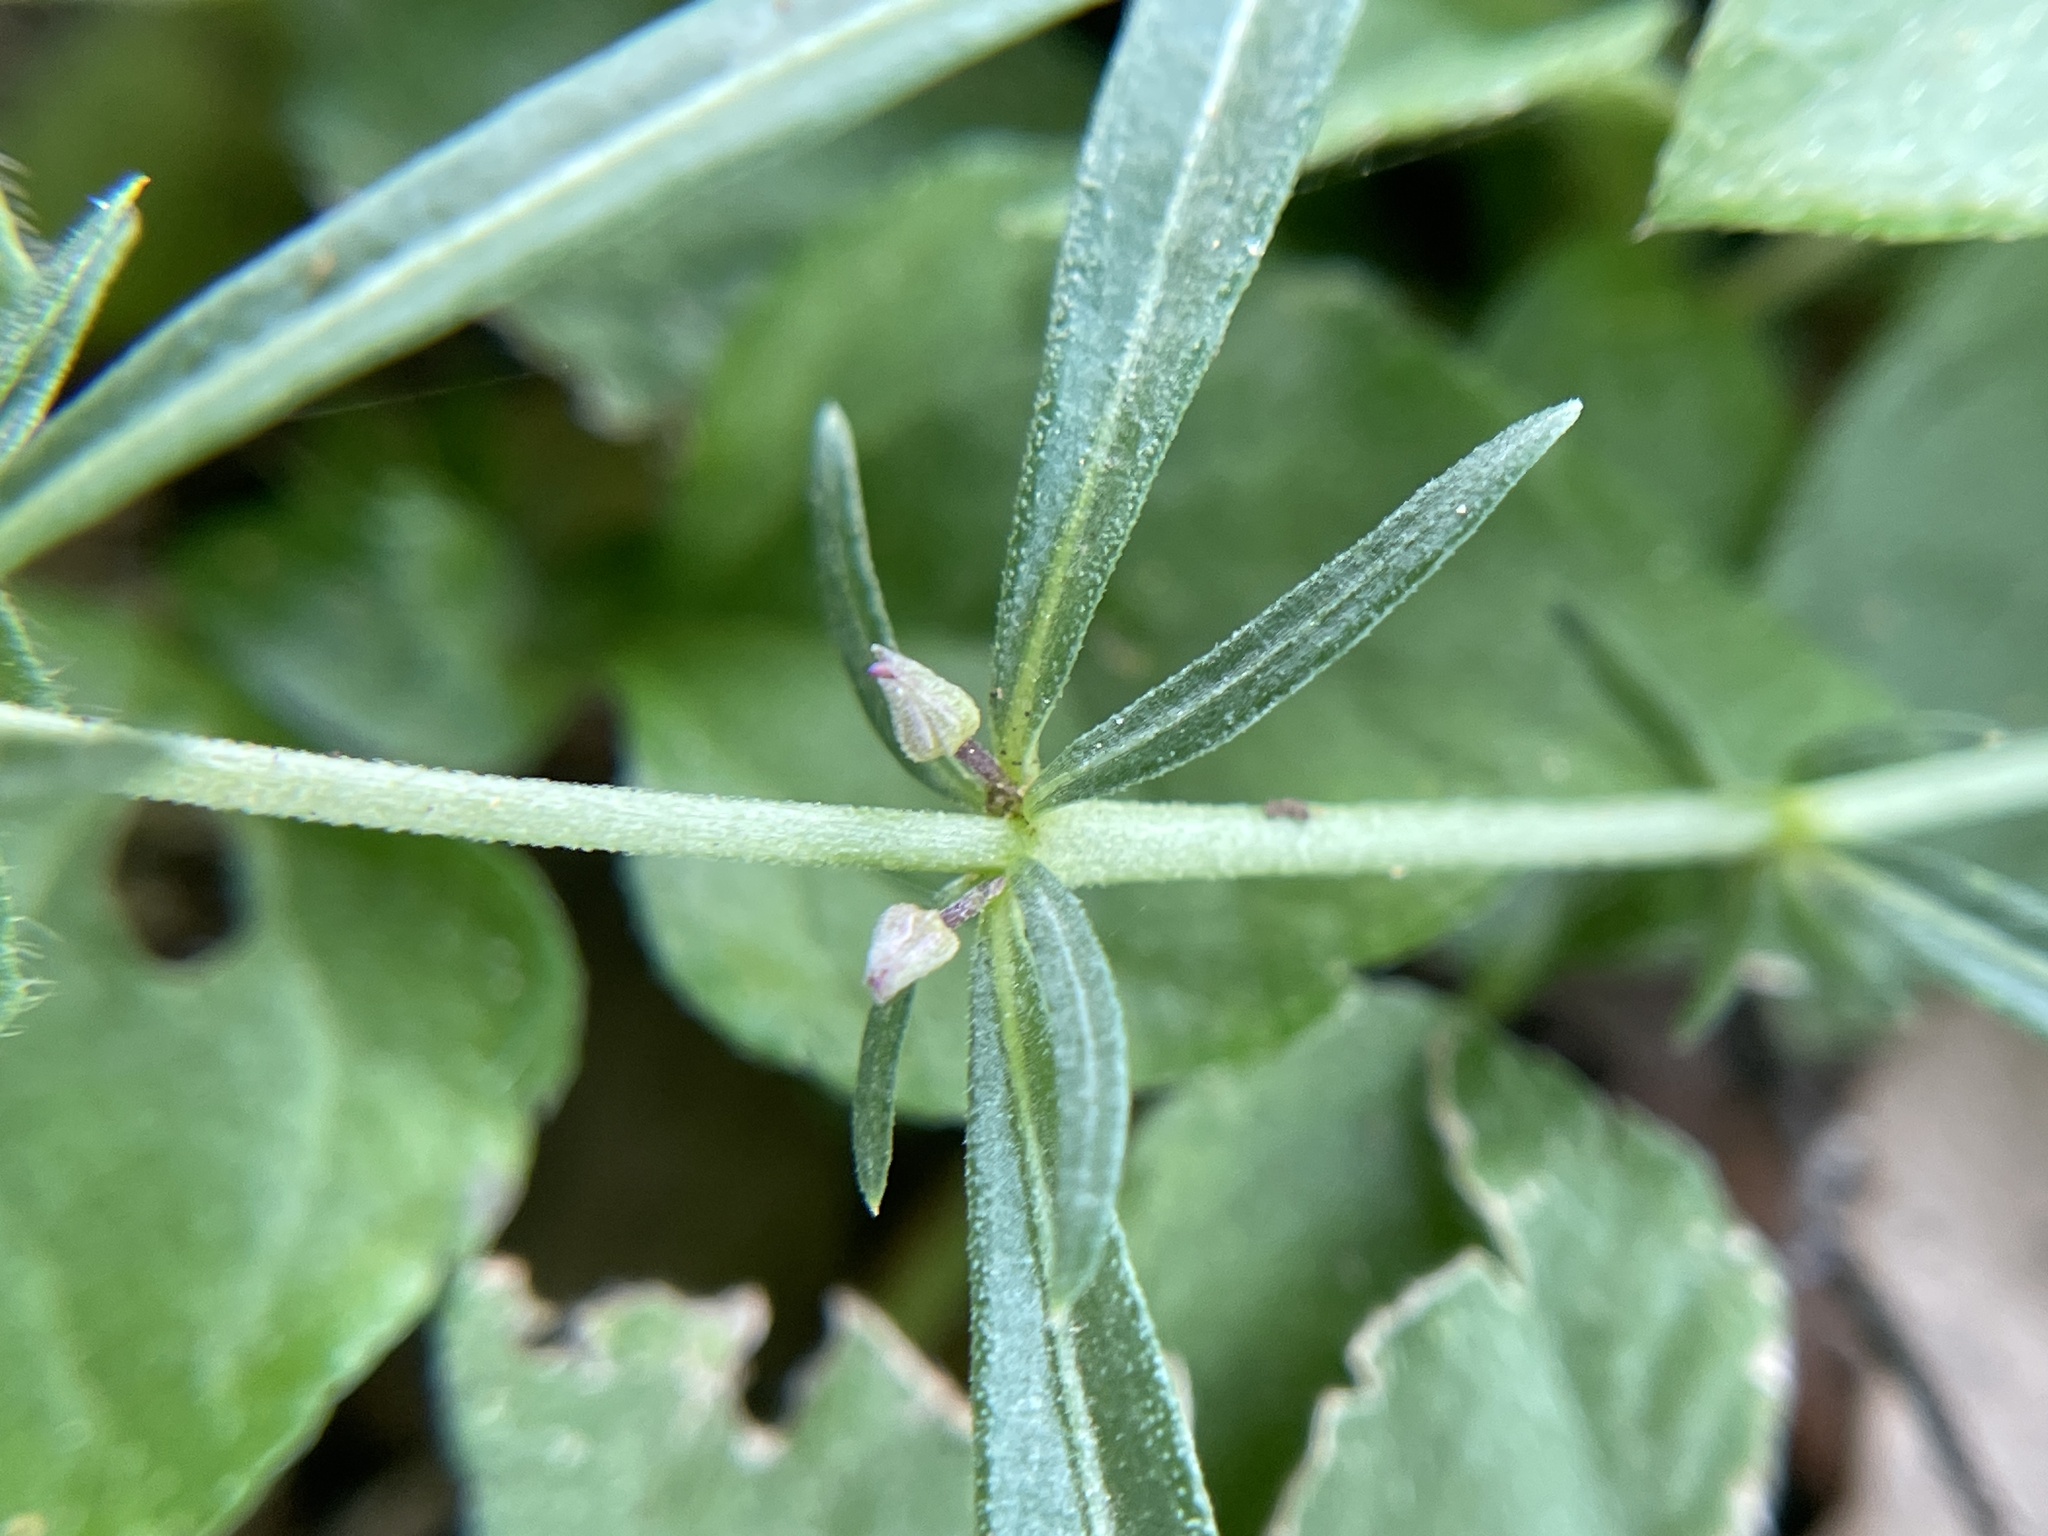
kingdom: Plantae
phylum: Tracheophyta
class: Magnoliopsida
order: Malpighiales
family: Violaceae
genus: Pombalia
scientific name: Pombalia verticillata
